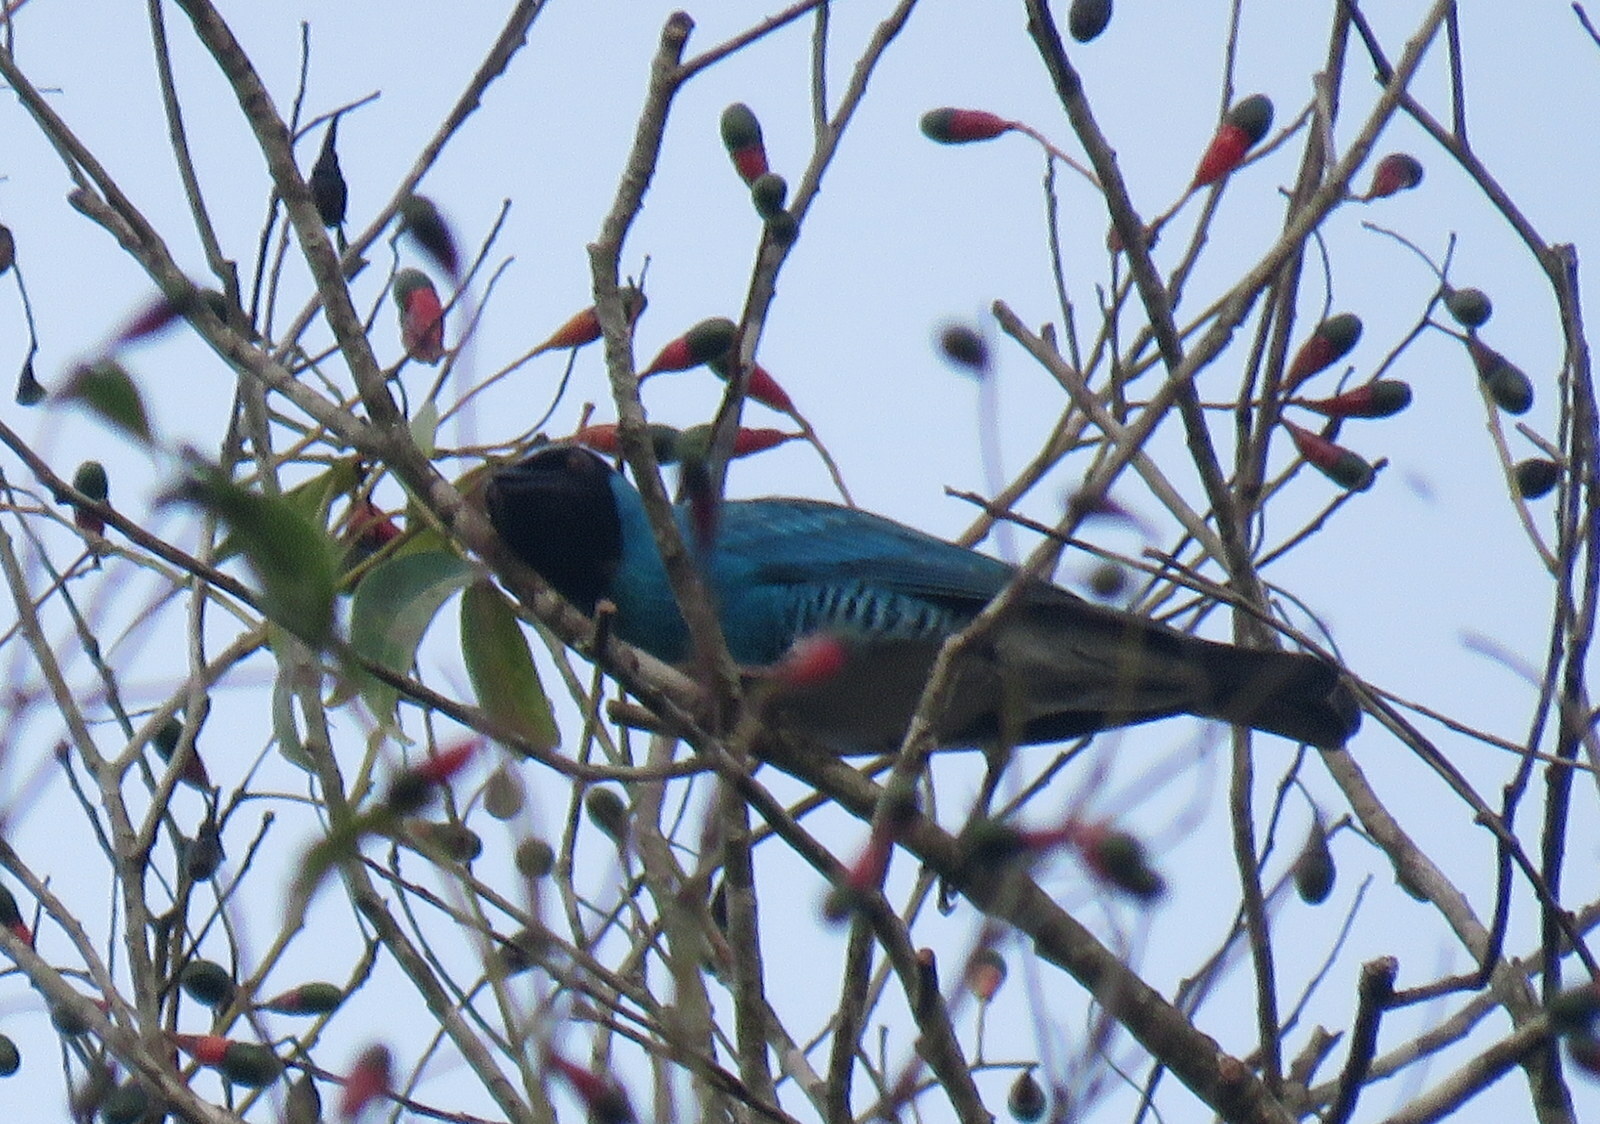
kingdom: Animalia
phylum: Chordata
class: Aves
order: Passeriformes
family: Thraupidae
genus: Tersina
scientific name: Tersina viridis
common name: Swallow tanager
